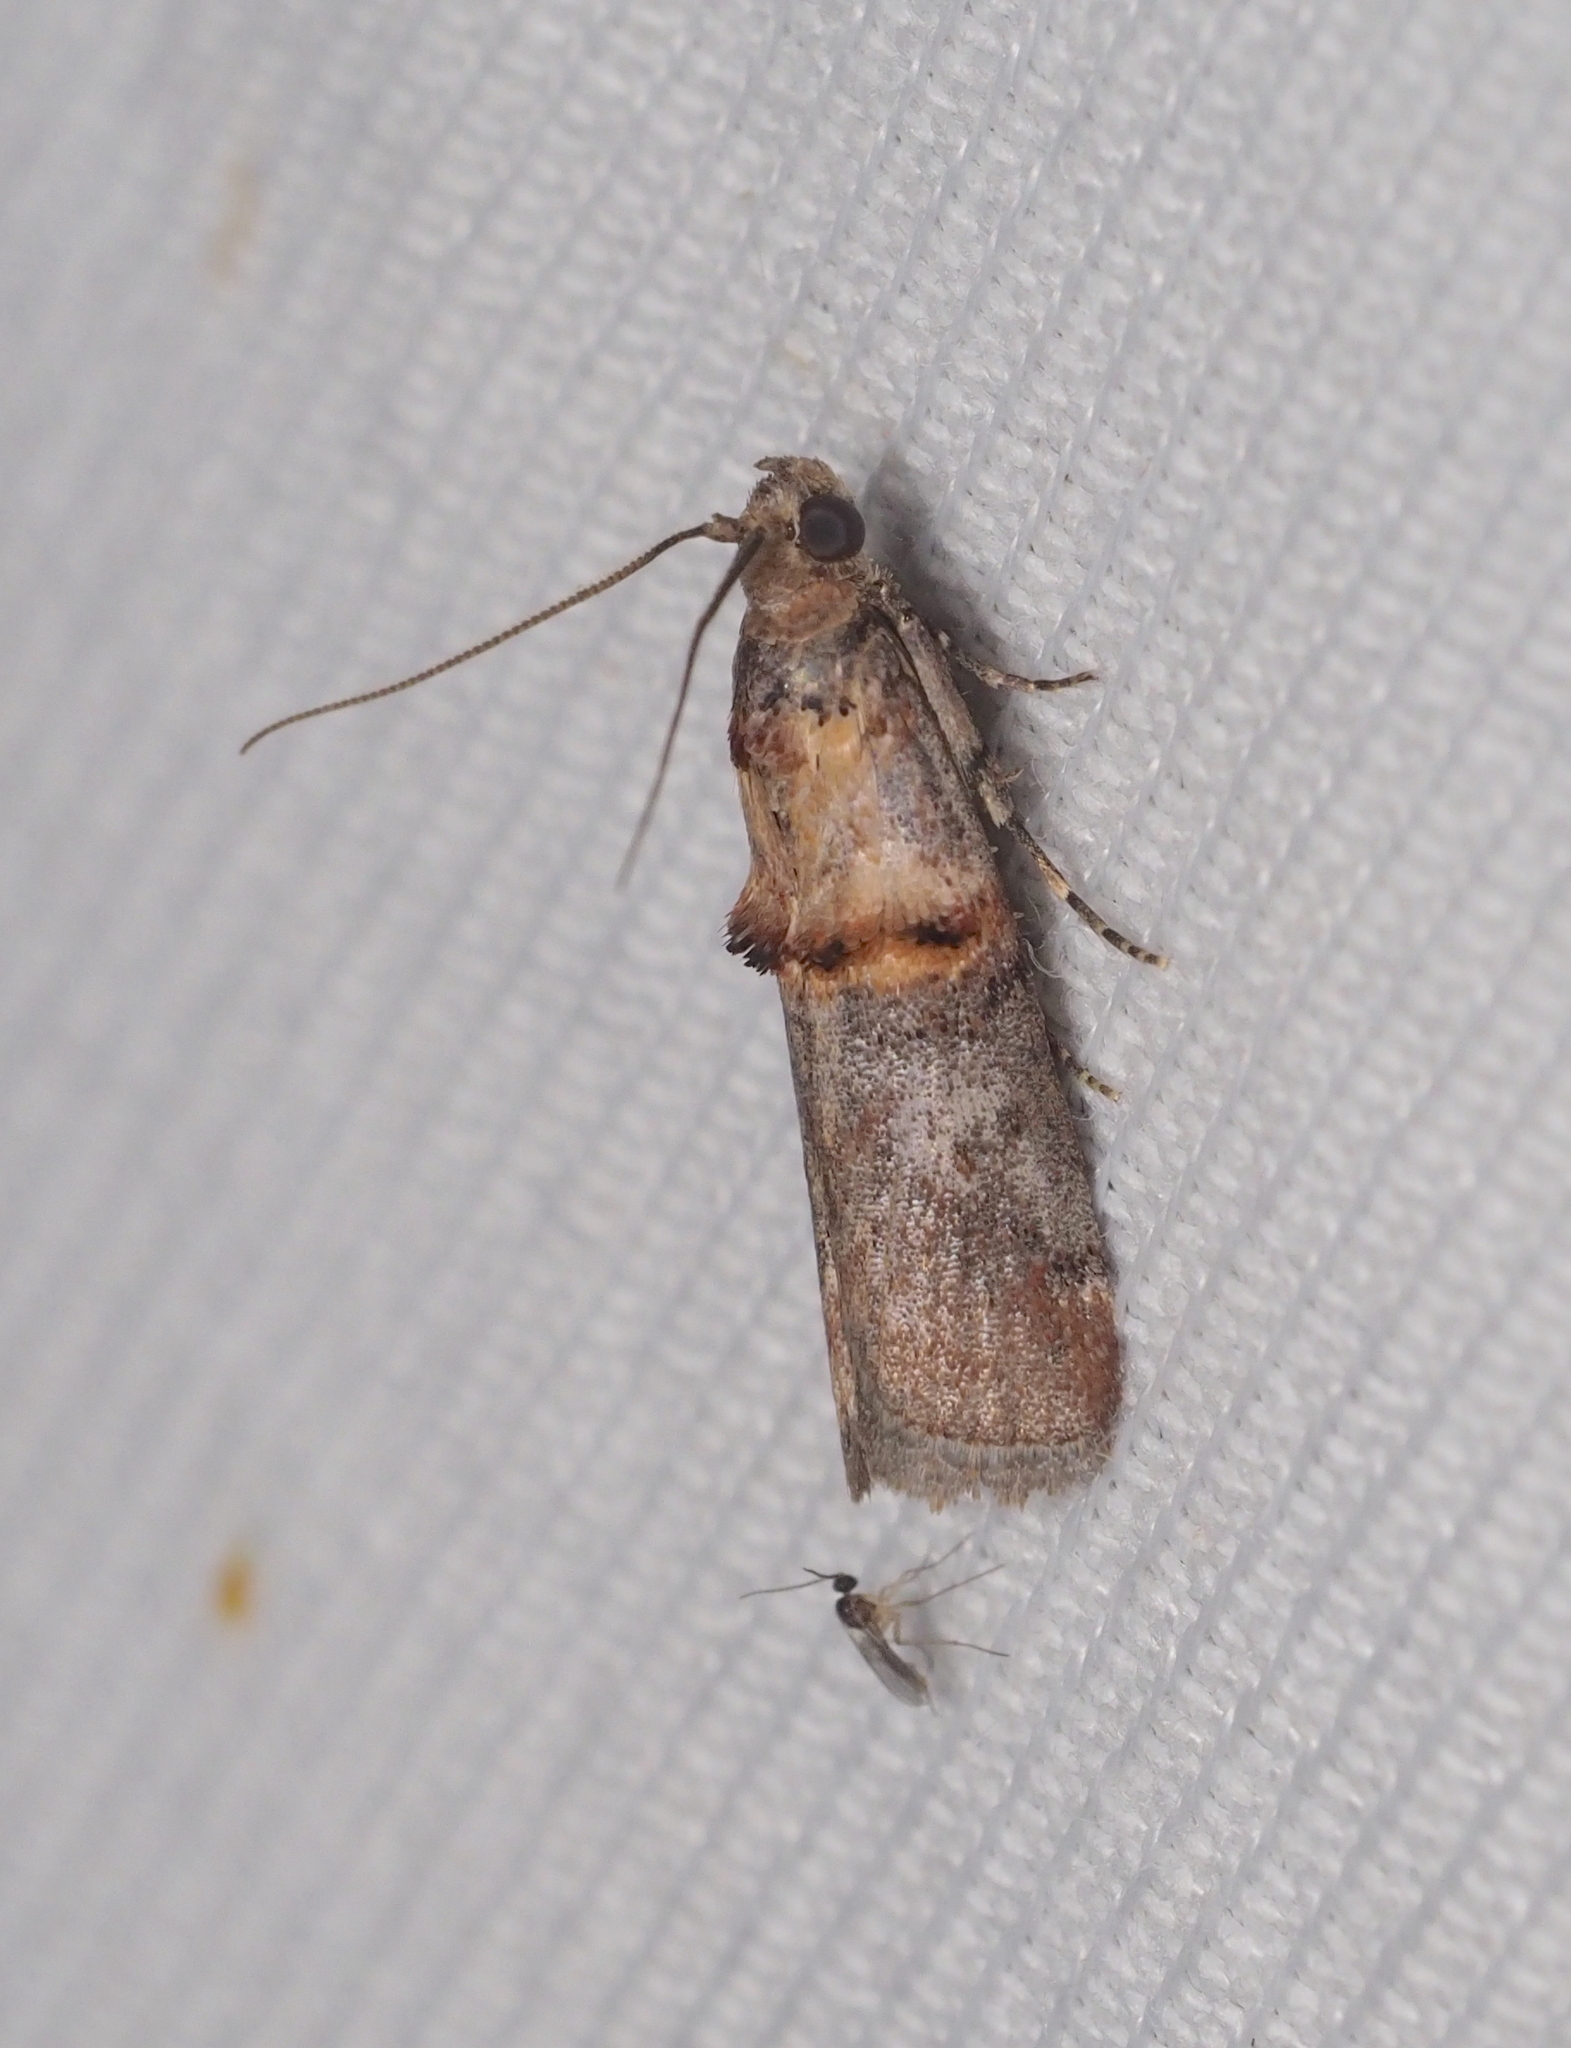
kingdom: Animalia
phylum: Arthropoda
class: Insecta
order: Lepidoptera
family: Pyralidae
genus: Trachonitis
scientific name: Trachonitis cristella
